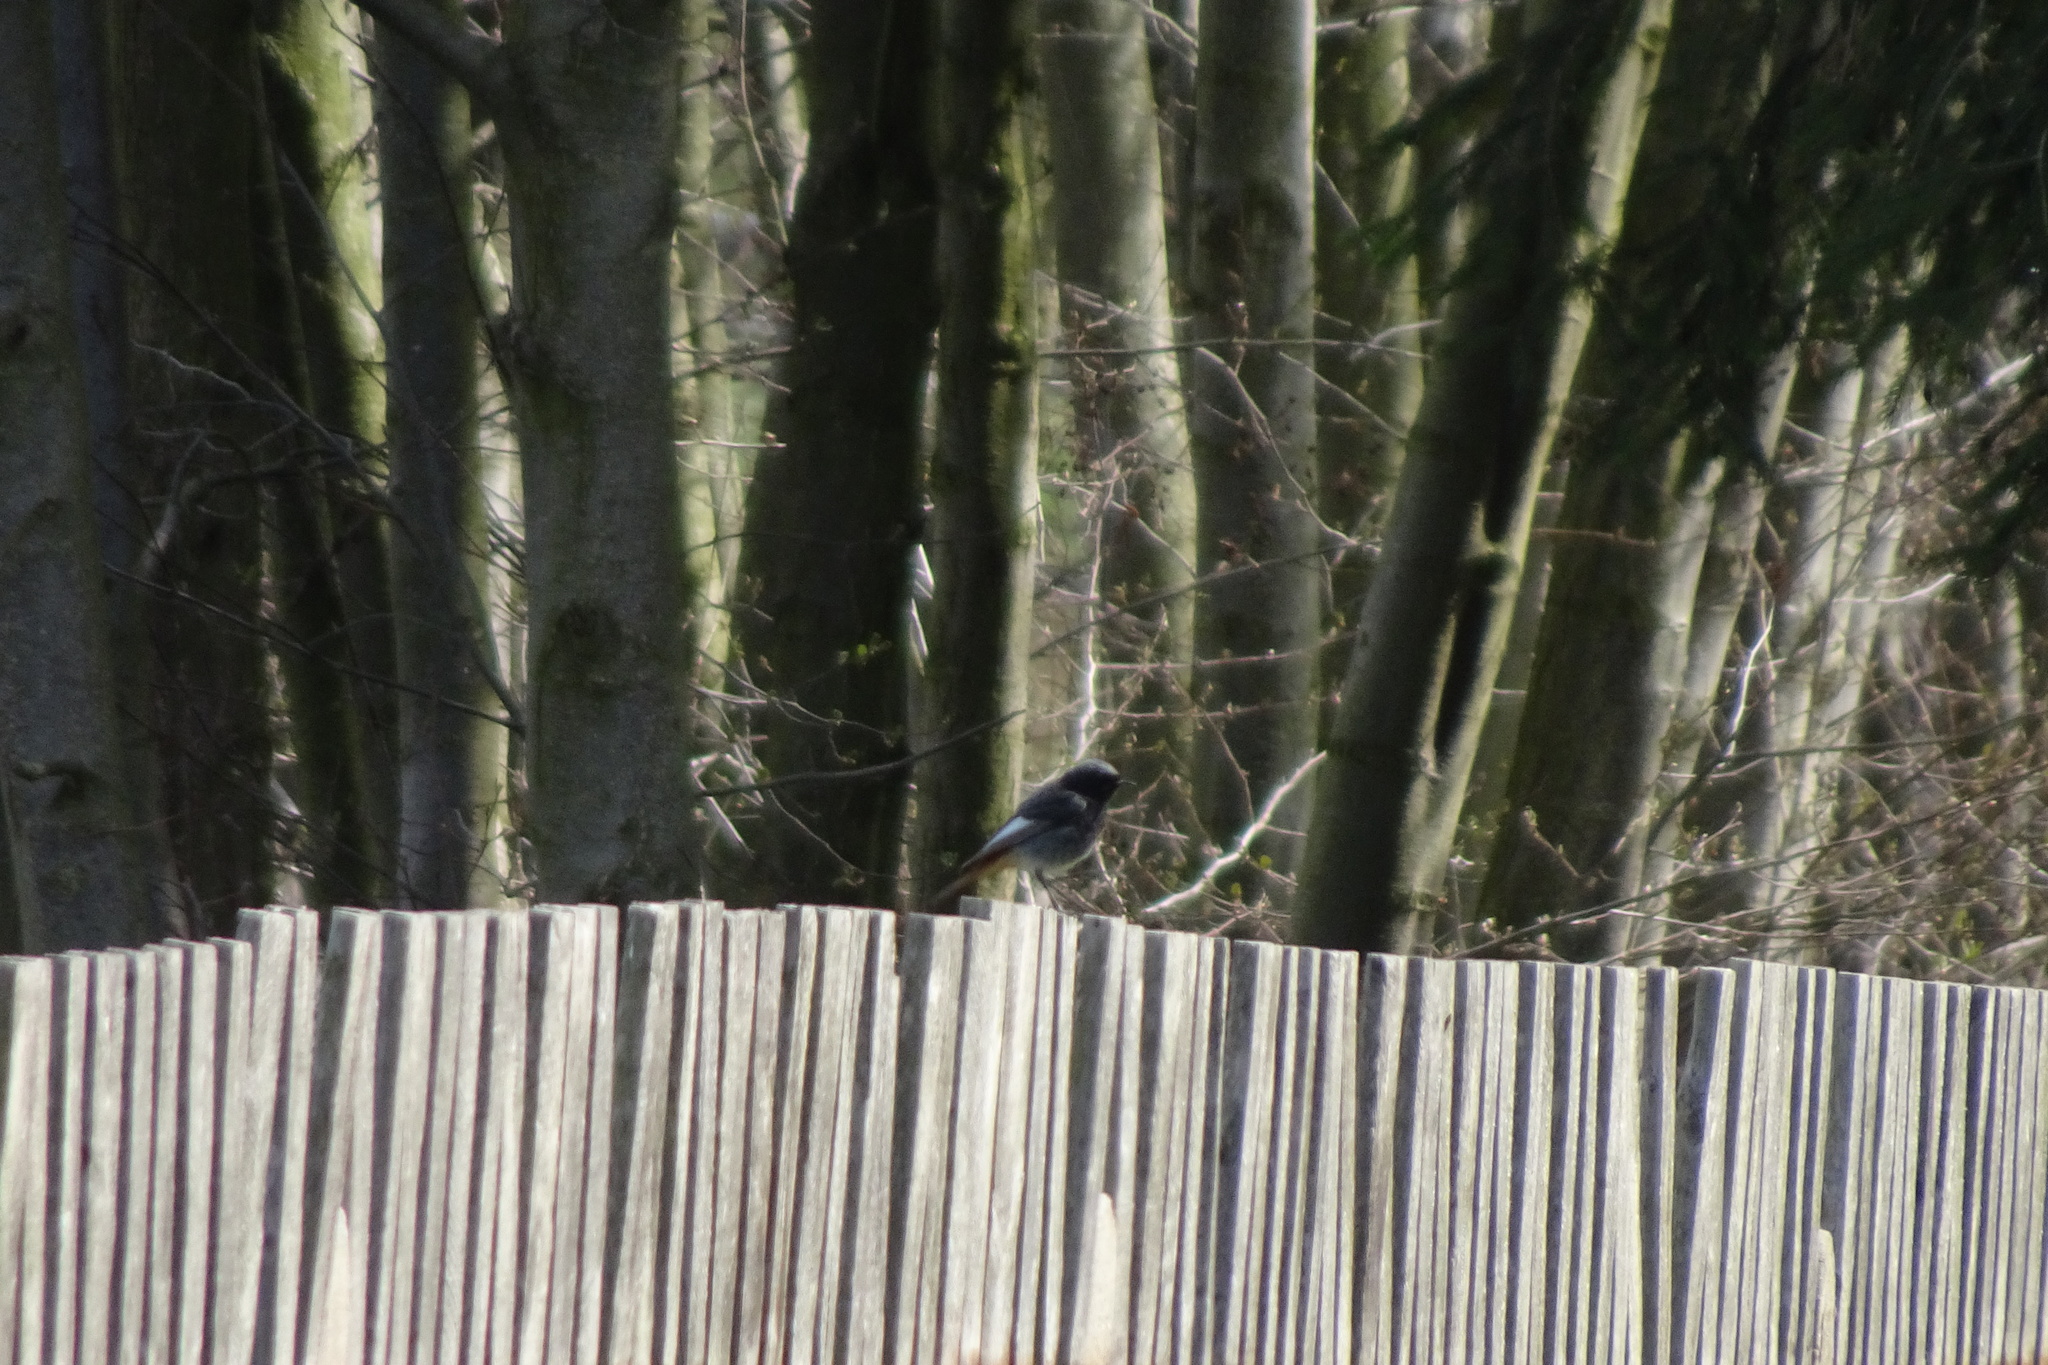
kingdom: Animalia
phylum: Chordata
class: Aves
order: Passeriformes
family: Muscicapidae
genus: Phoenicurus
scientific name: Phoenicurus ochruros
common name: Black redstart
